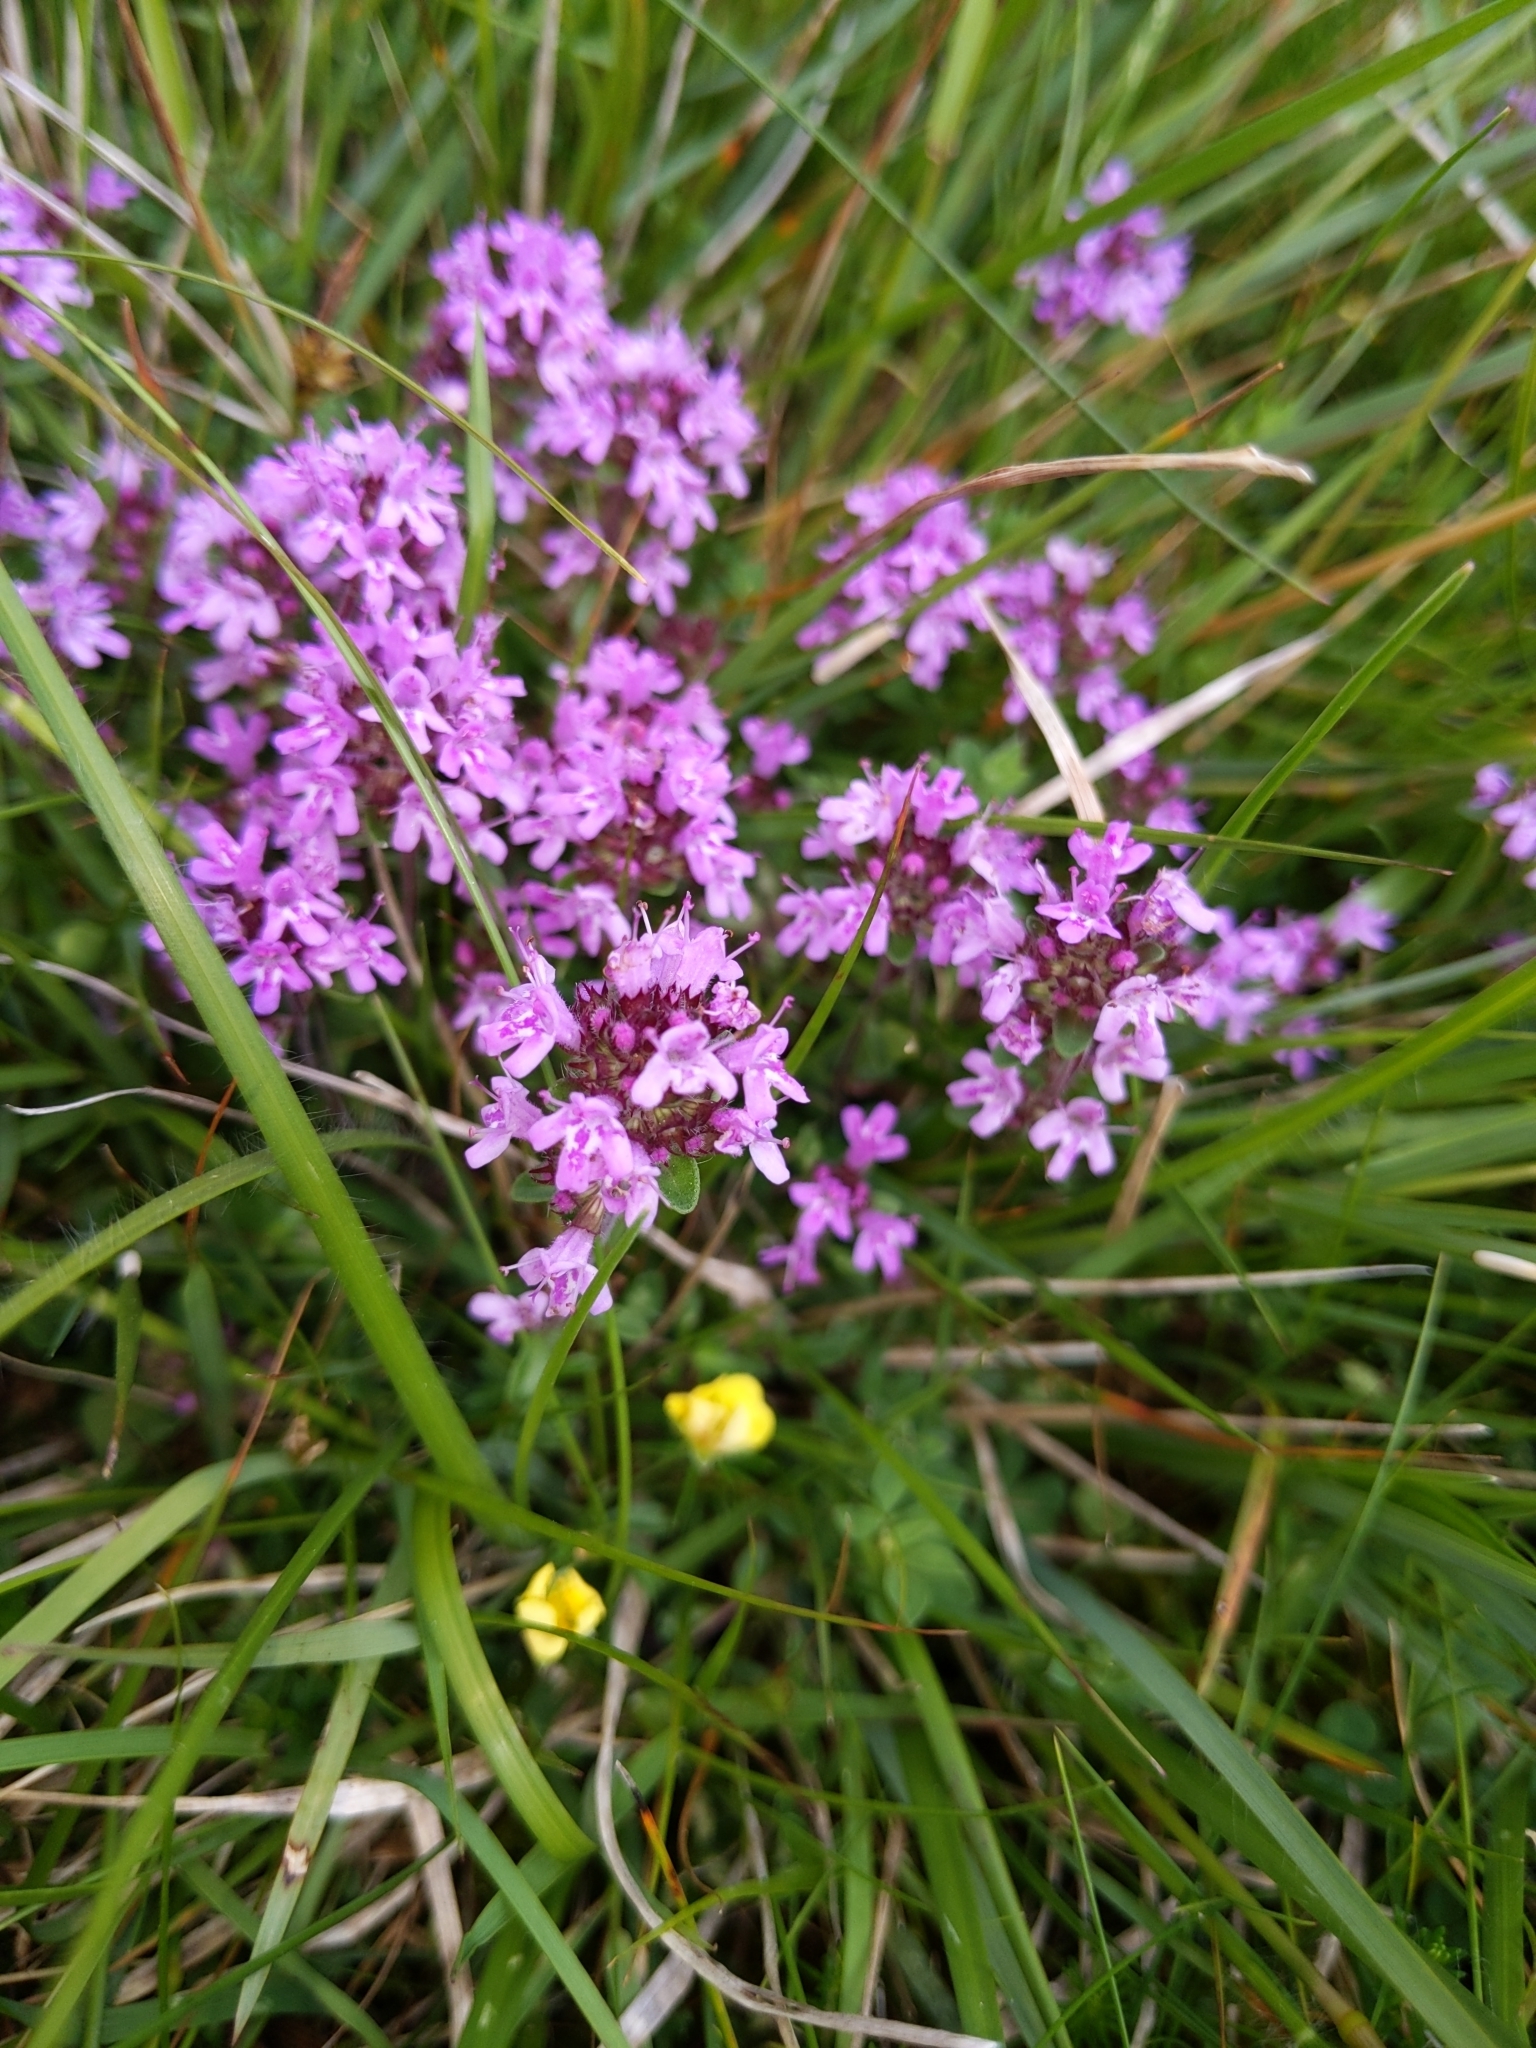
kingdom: Plantae
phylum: Tracheophyta
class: Magnoliopsida
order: Lamiales
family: Lamiaceae
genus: Thymus
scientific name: Thymus praecox
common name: Wild thyme
